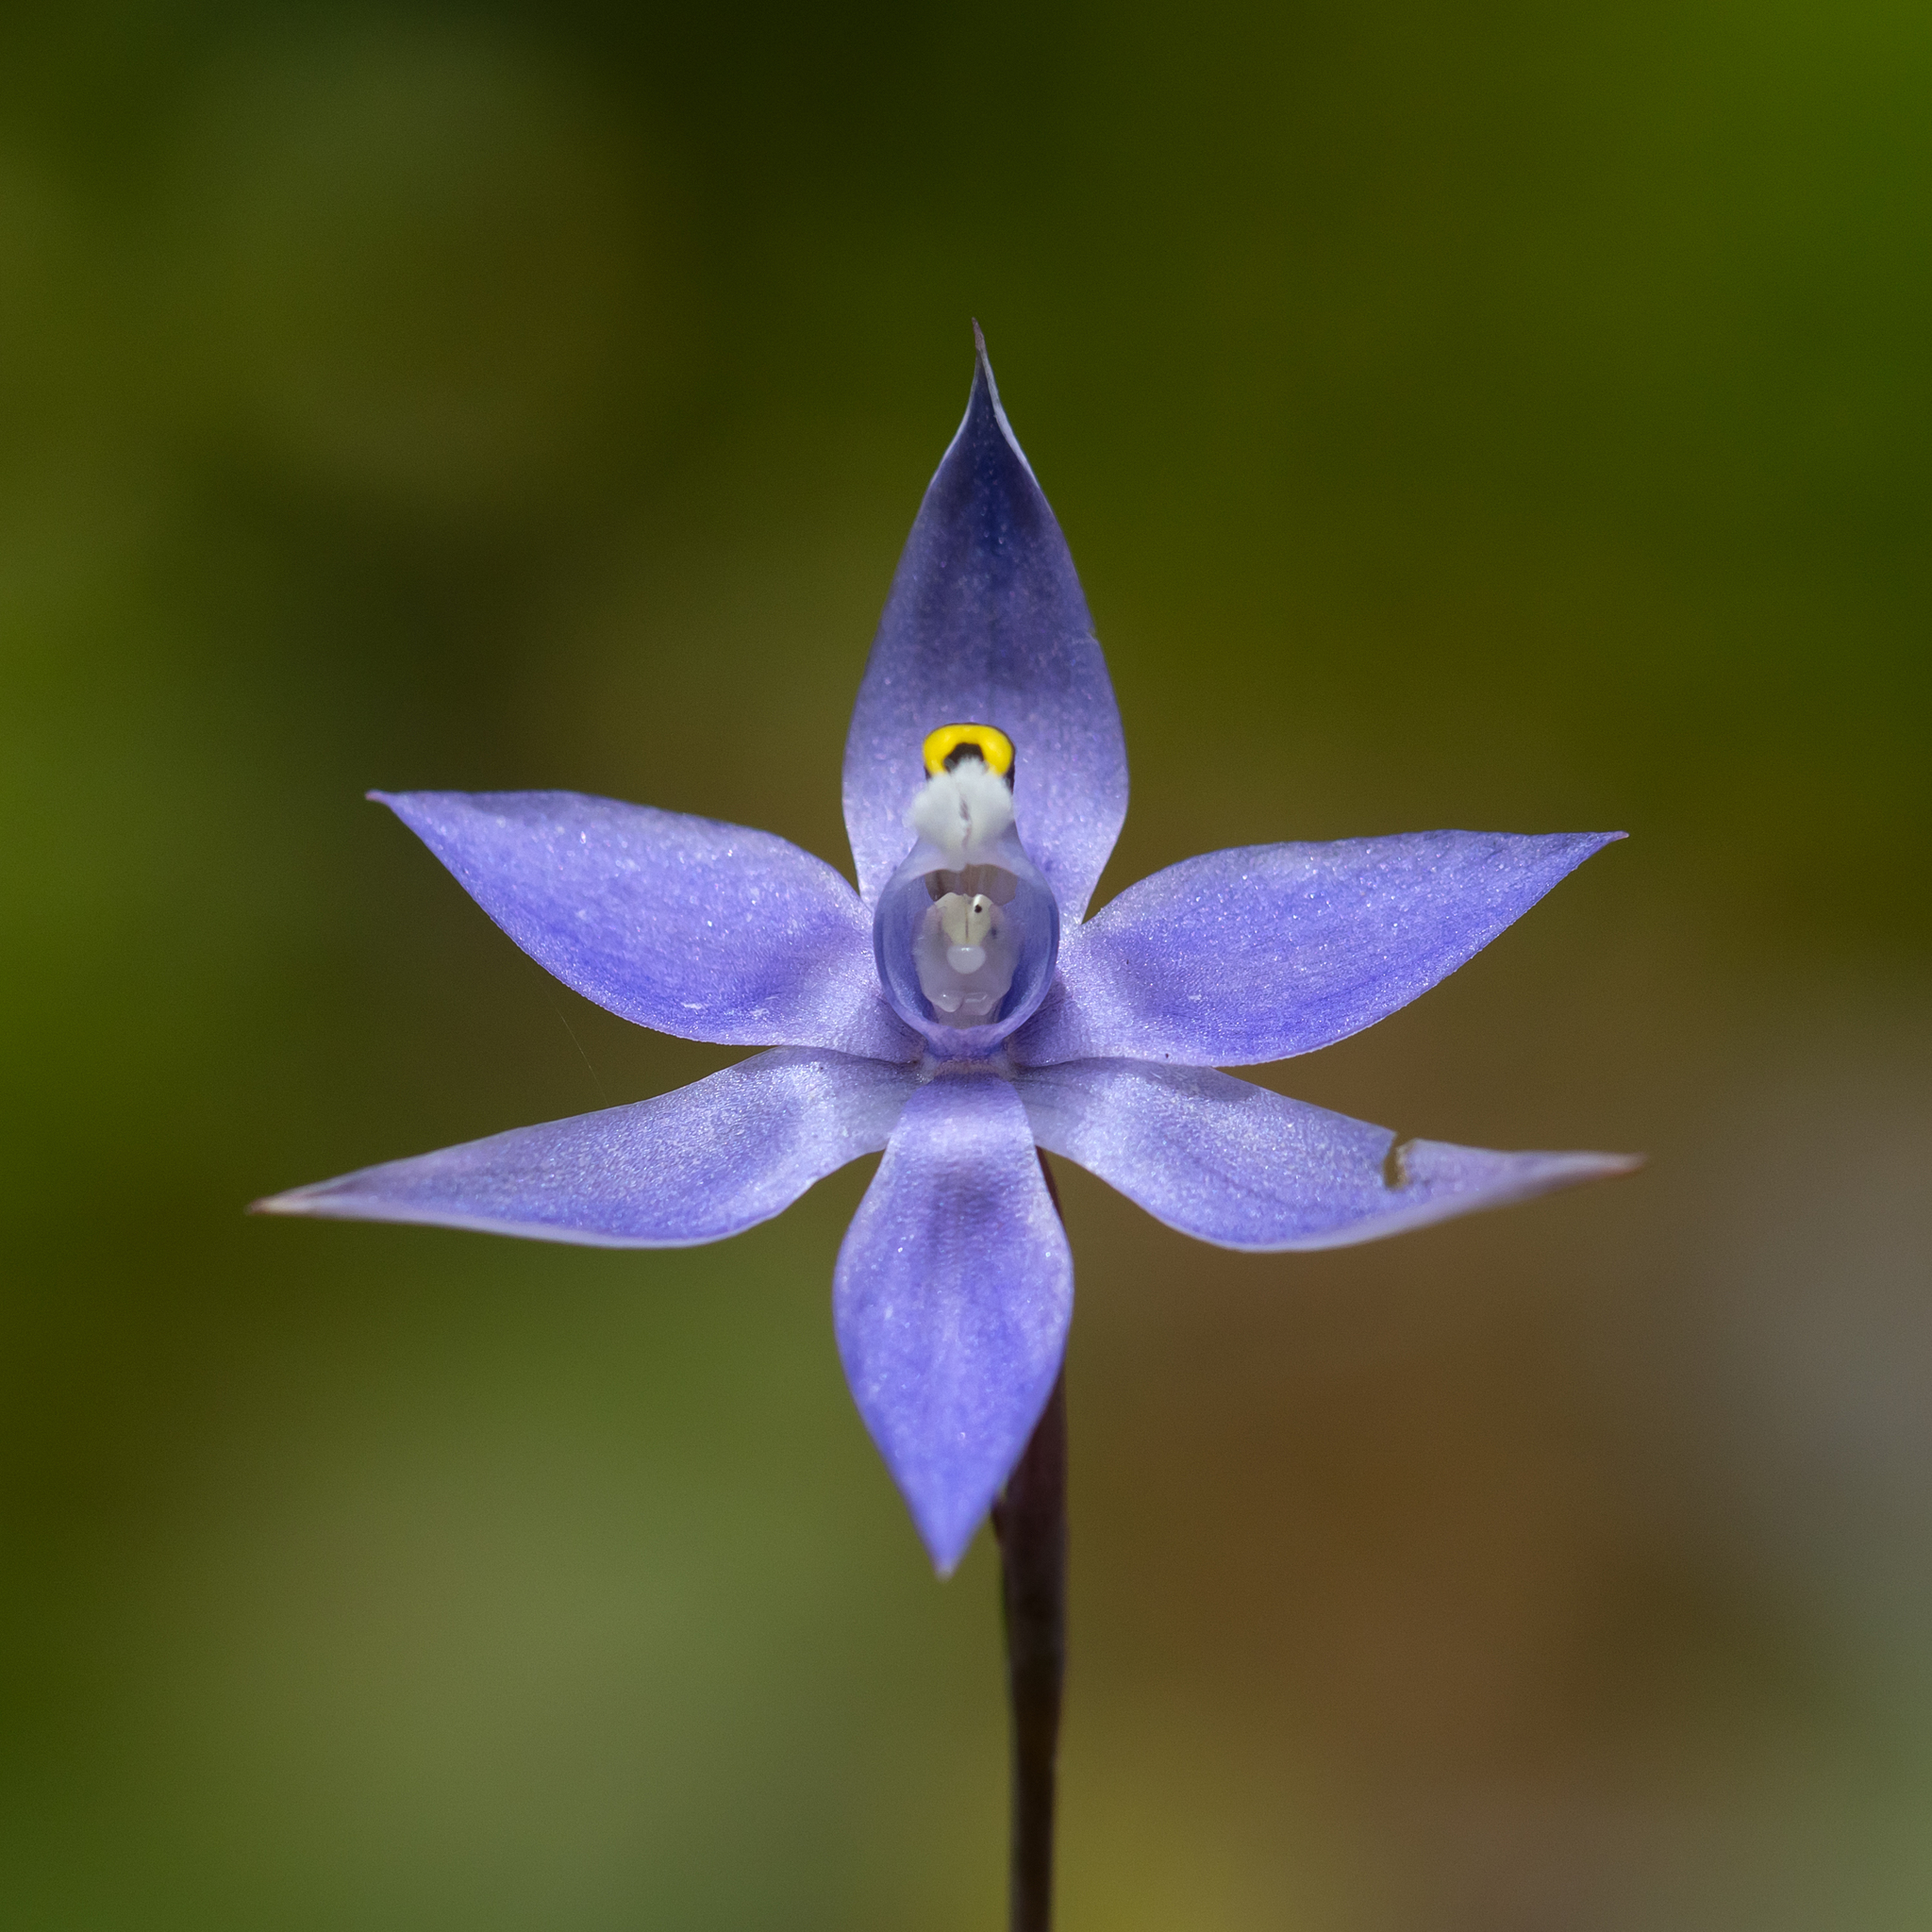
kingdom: Plantae
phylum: Tracheophyta
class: Liliopsida
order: Asparagales
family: Orchidaceae
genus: Thelymitra
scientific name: Thelymitra graminea
